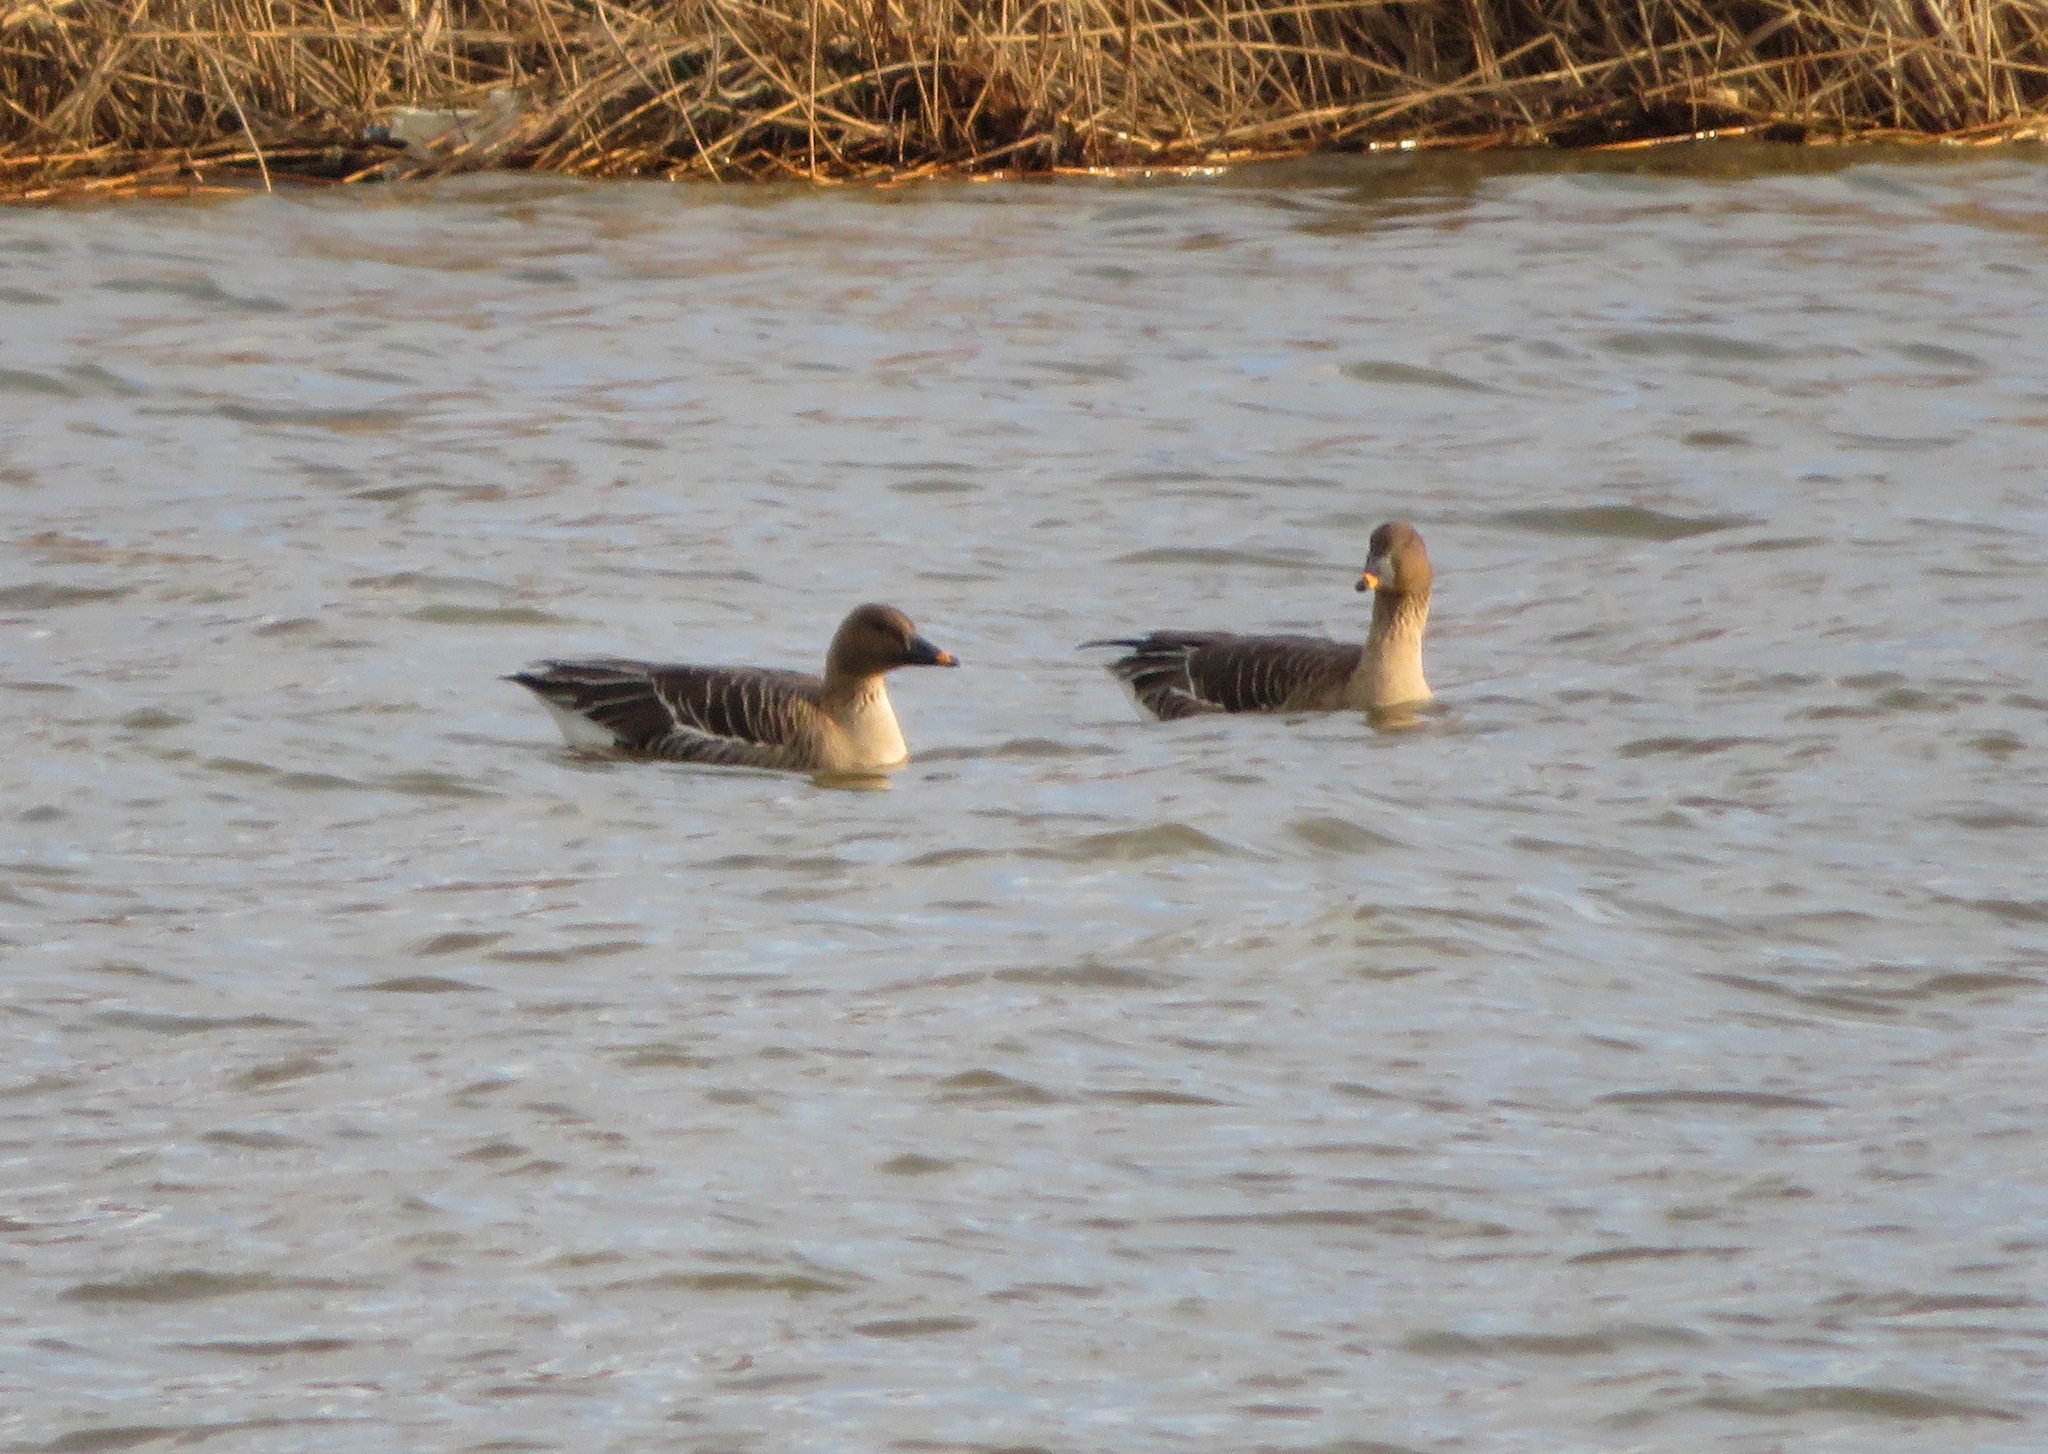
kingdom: Animalia
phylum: Chordata
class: Aves
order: Anseriformes
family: Anatidae
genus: Anser
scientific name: Anser serrirostris
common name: Tundra bean goose
